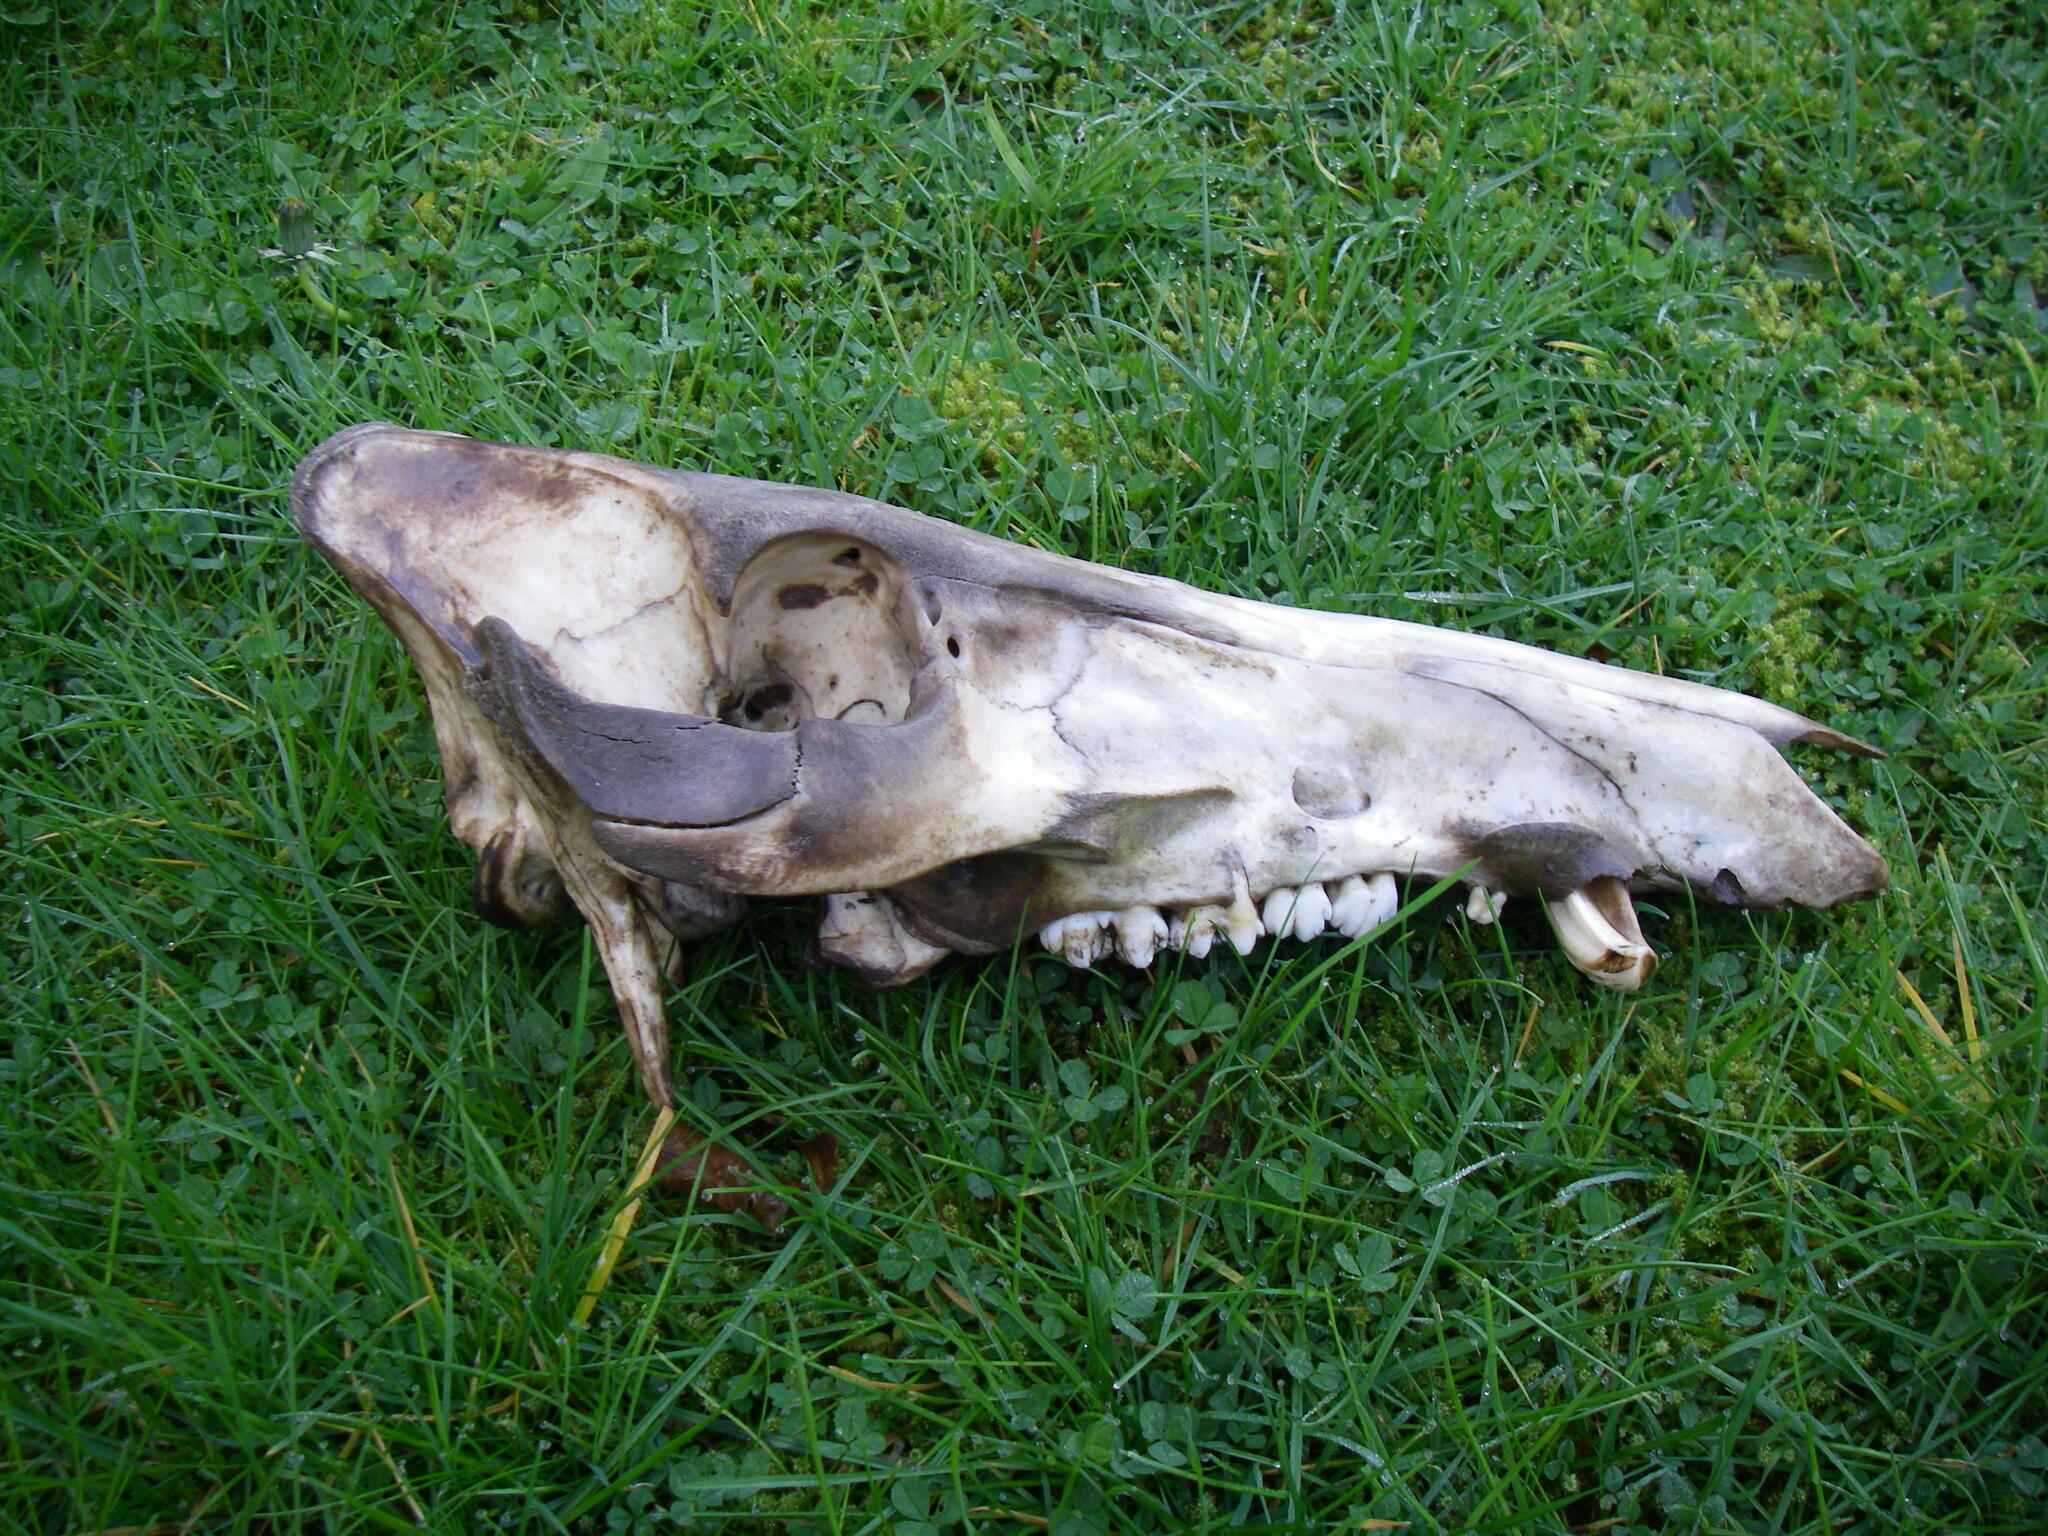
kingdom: Animalia
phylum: Chordata
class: Mammalia
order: Artiodactyla
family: Suidae
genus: Sus
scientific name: Sus scrofa
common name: Wild boar
